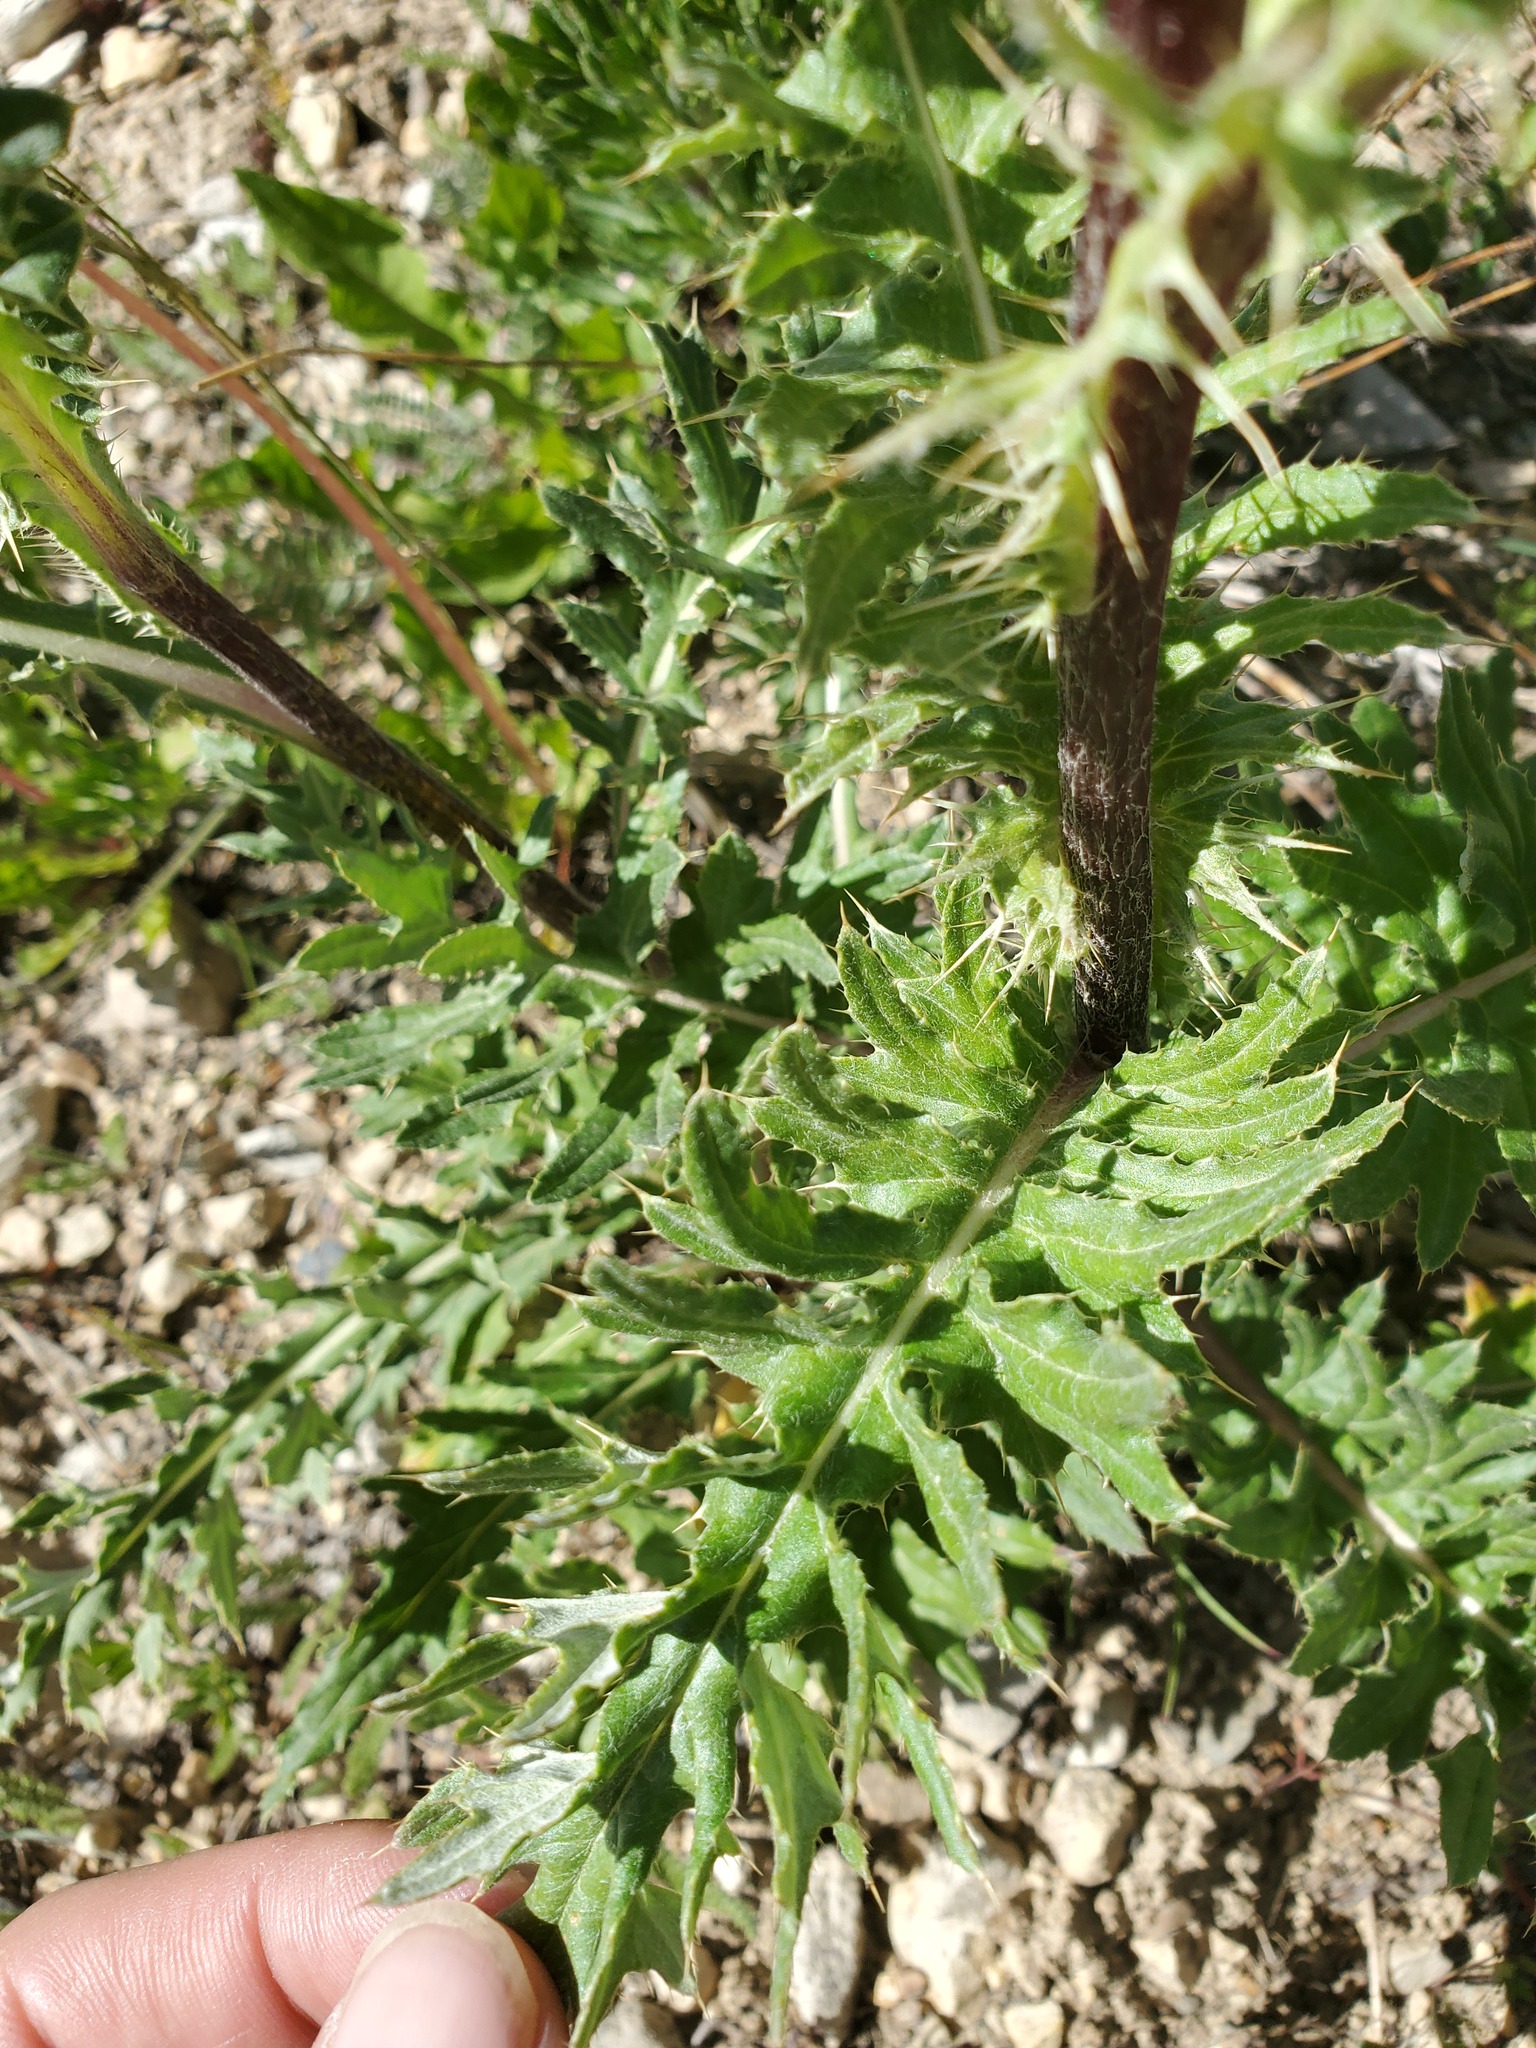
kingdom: Plantae
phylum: Tracheophyta
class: Magnoliopsida
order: Asterales
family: Asteraceae
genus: Cirsium
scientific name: Cirsium griseum
